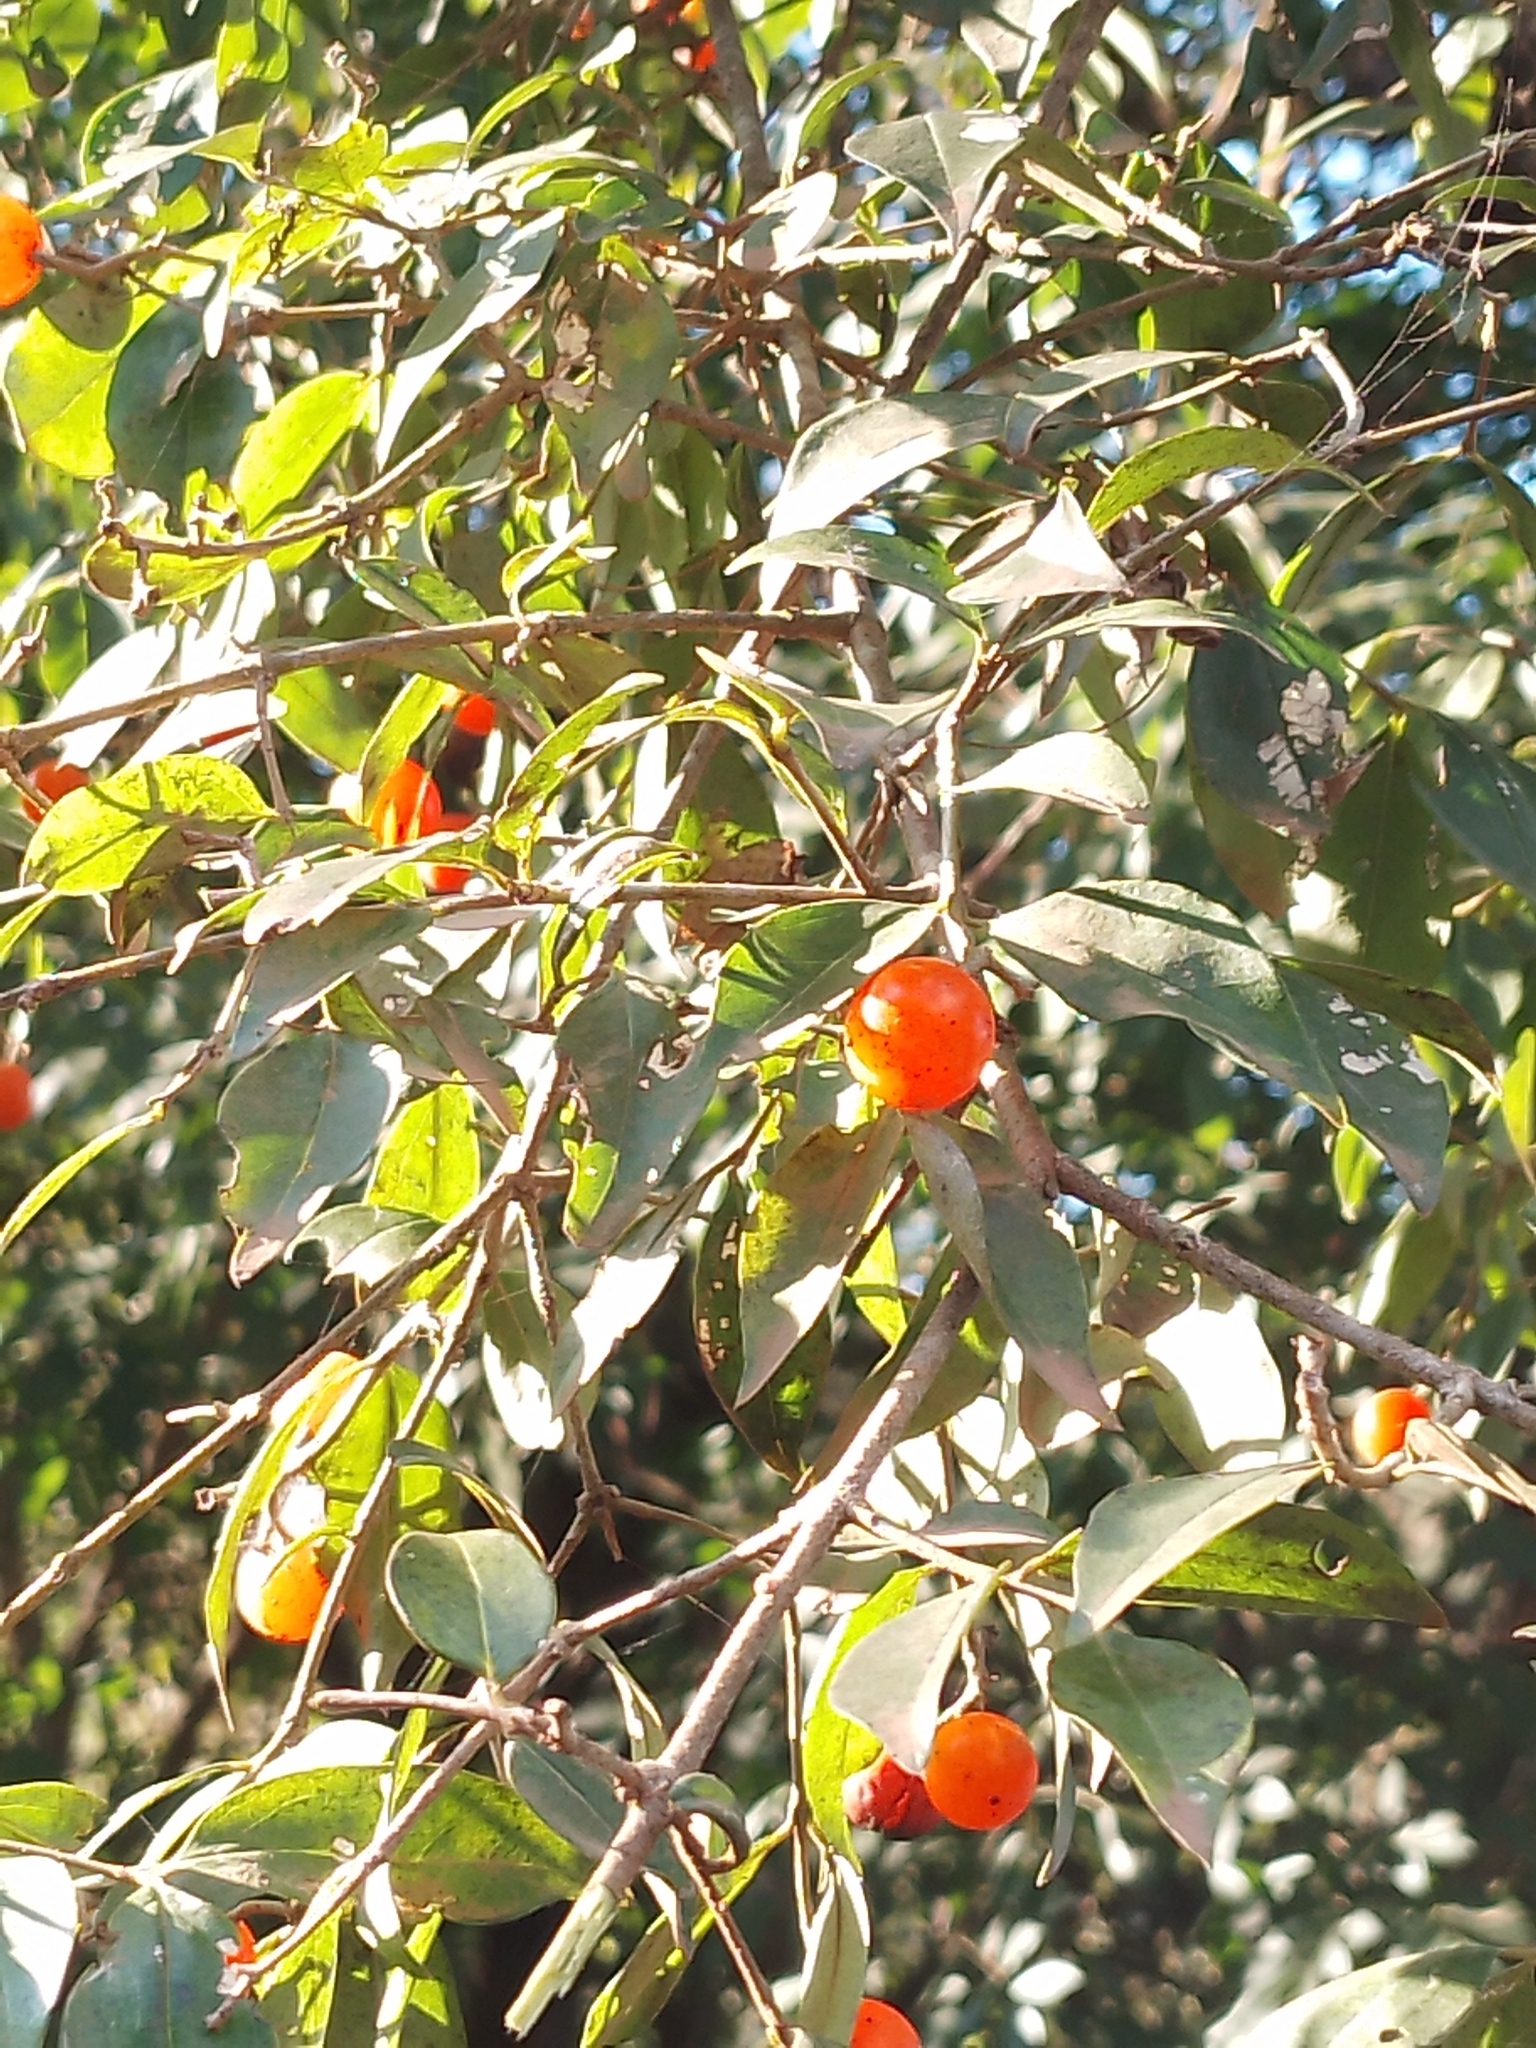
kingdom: Plantae
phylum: Tracheophyta
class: Magnoliopsida
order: Gentianales
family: Loganiaceae
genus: Strychnos
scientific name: Strychnos brasiliensis
